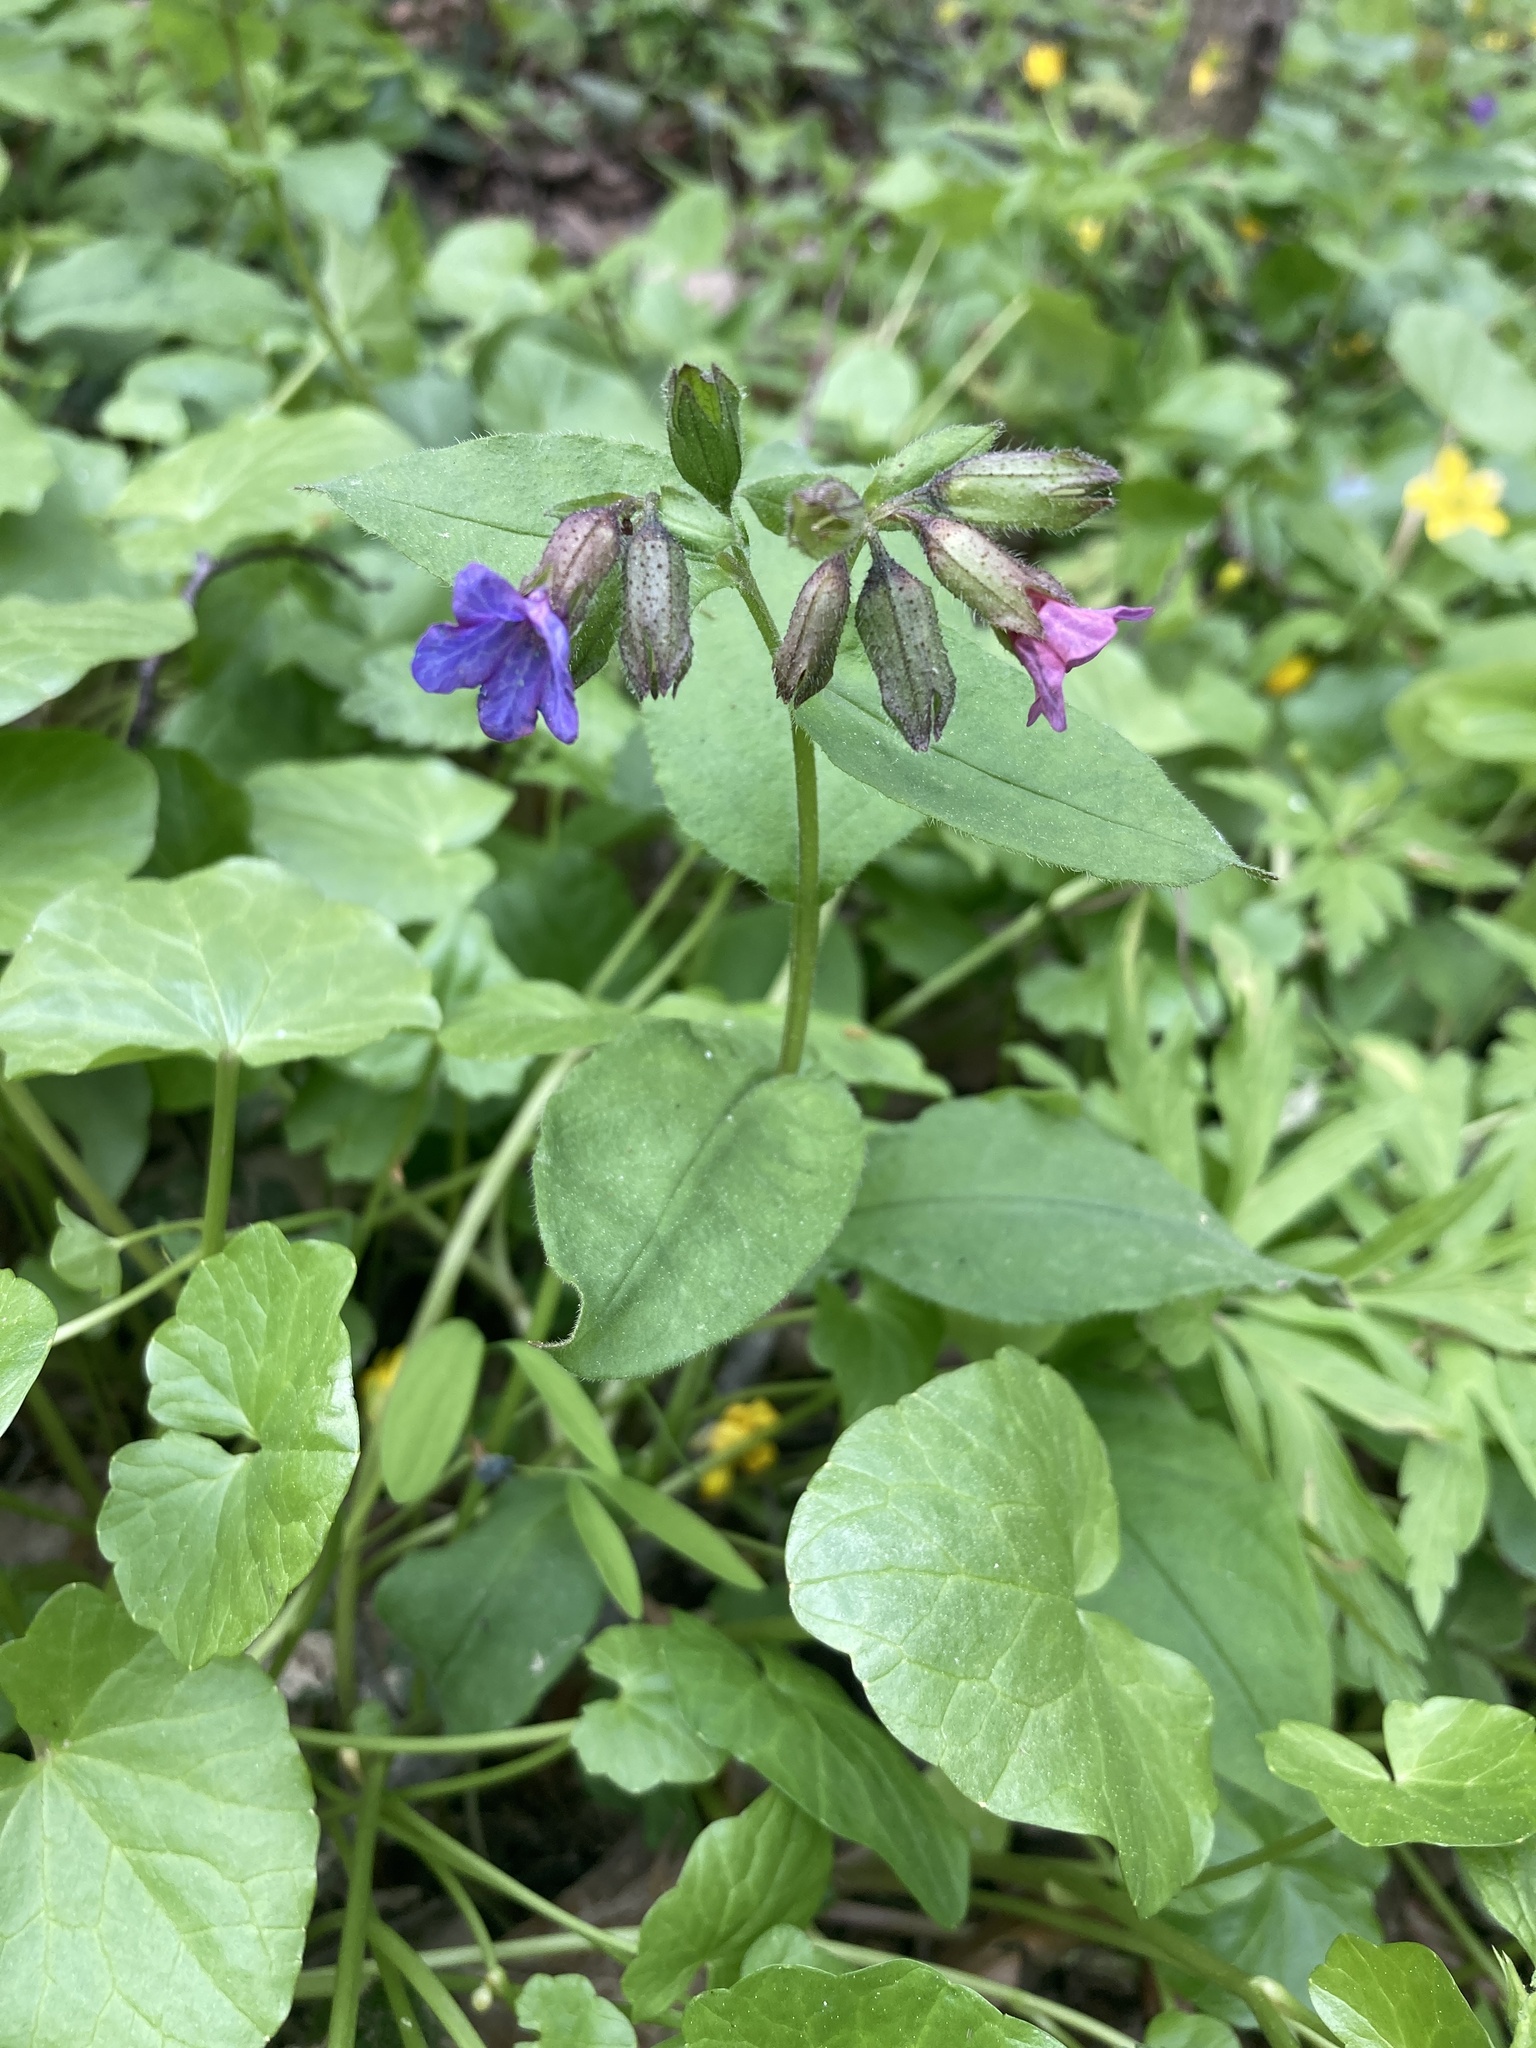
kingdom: Plantae
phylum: Tracheophyta
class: Magnoliopsida
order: Boraginales
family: Boraginaceae
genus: Pulmonaria
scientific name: Pulmonaria obscura
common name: Suffolk lungwort
